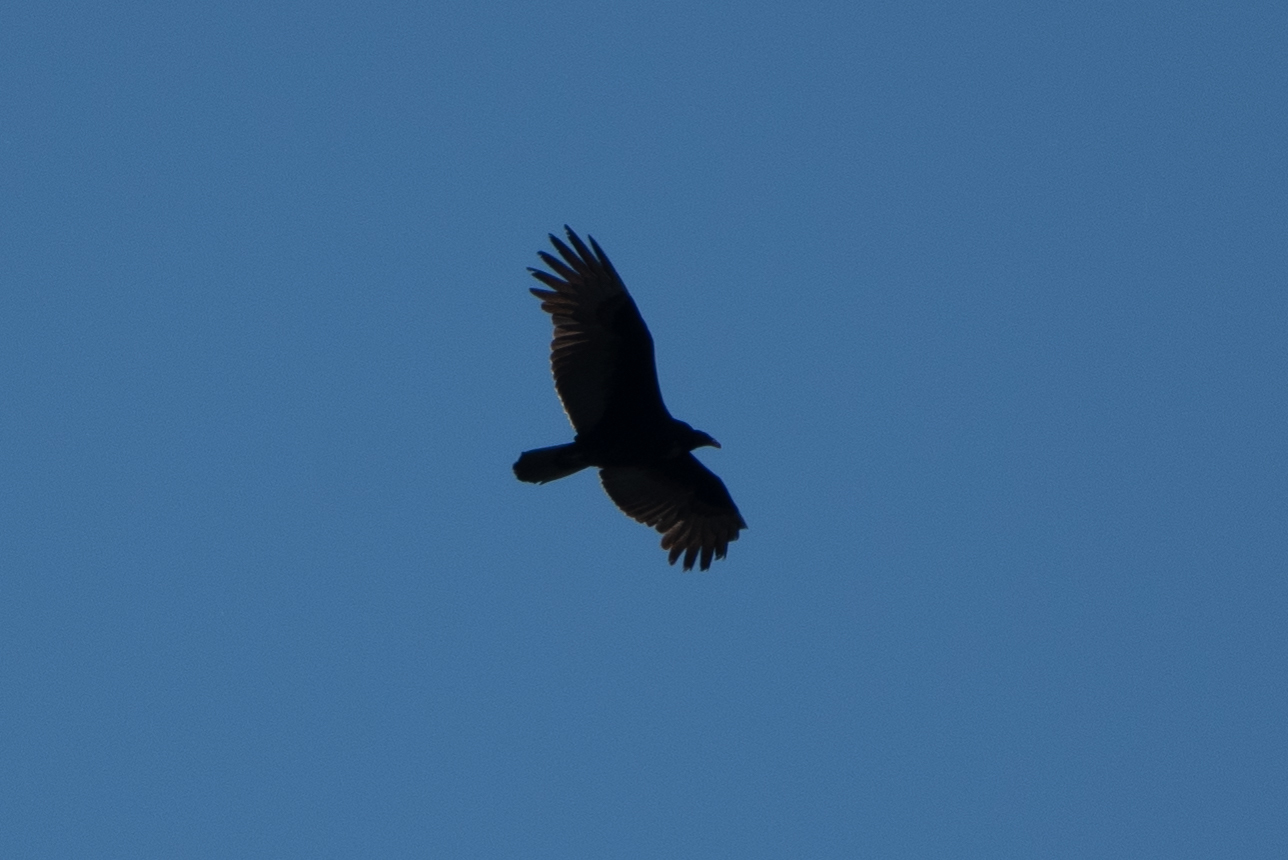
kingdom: Animalia
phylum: Chordata
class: Aves
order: Accipitriformes
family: Cathartidae
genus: Cathartes
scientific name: Cathartes aura
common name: Turkey vulture
